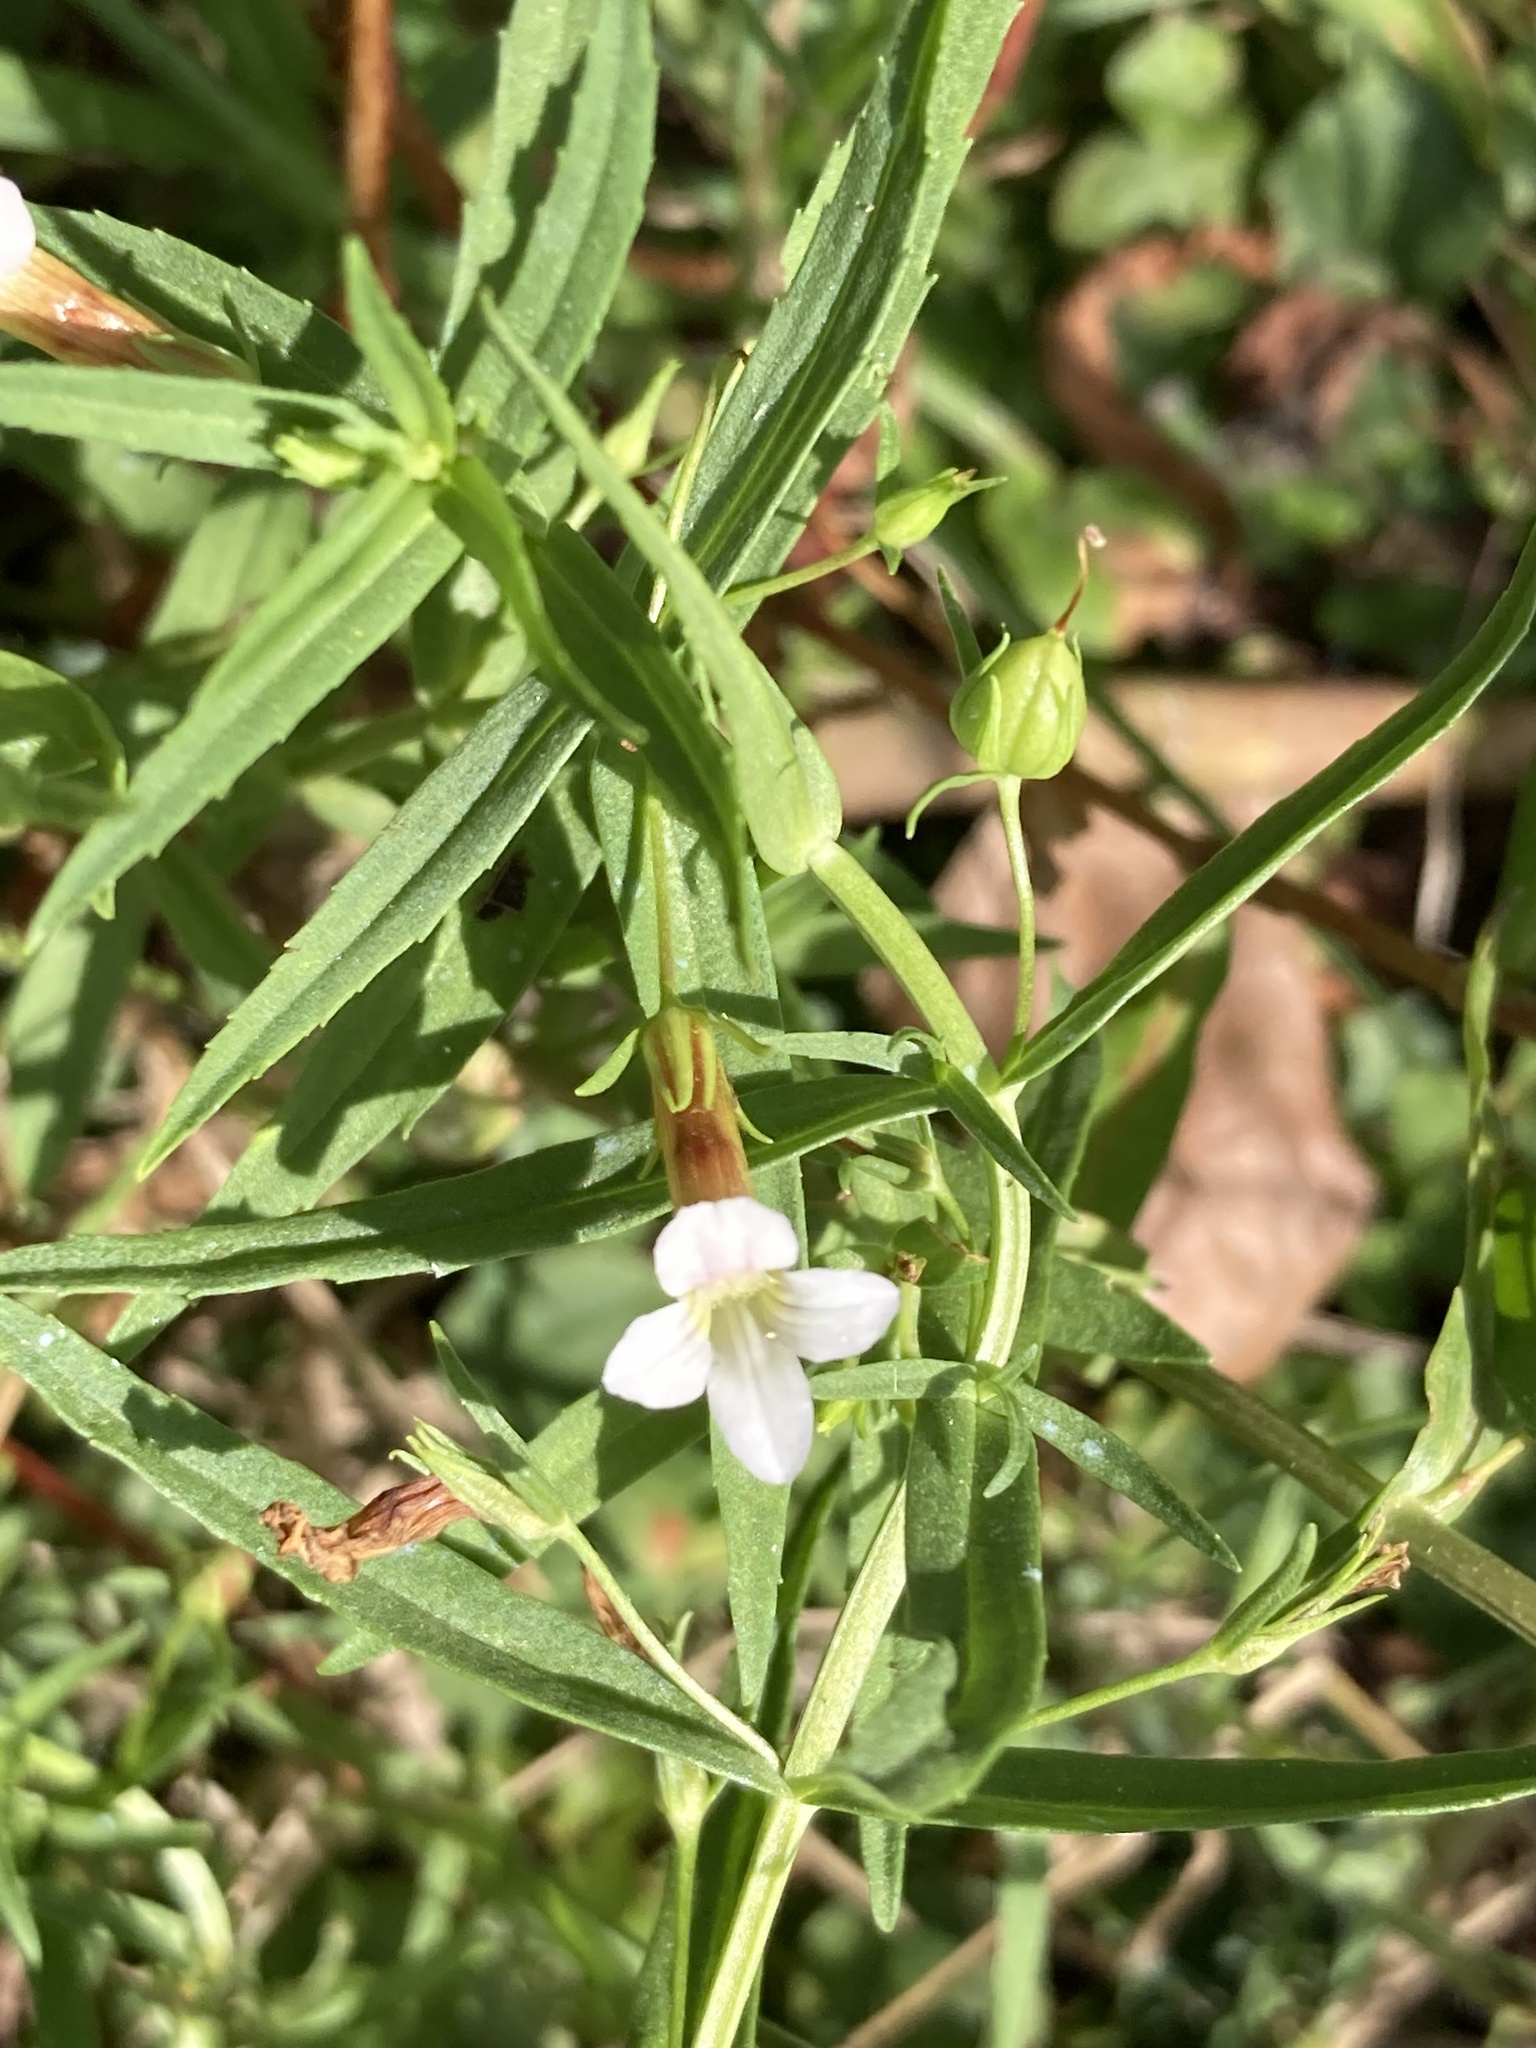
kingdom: Plantae
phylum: Tracheophyta
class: Magnoliopsida
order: Lamiales
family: Plantaginaceae
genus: Gratiola
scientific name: Gratiola officinalis
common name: Gratiola
